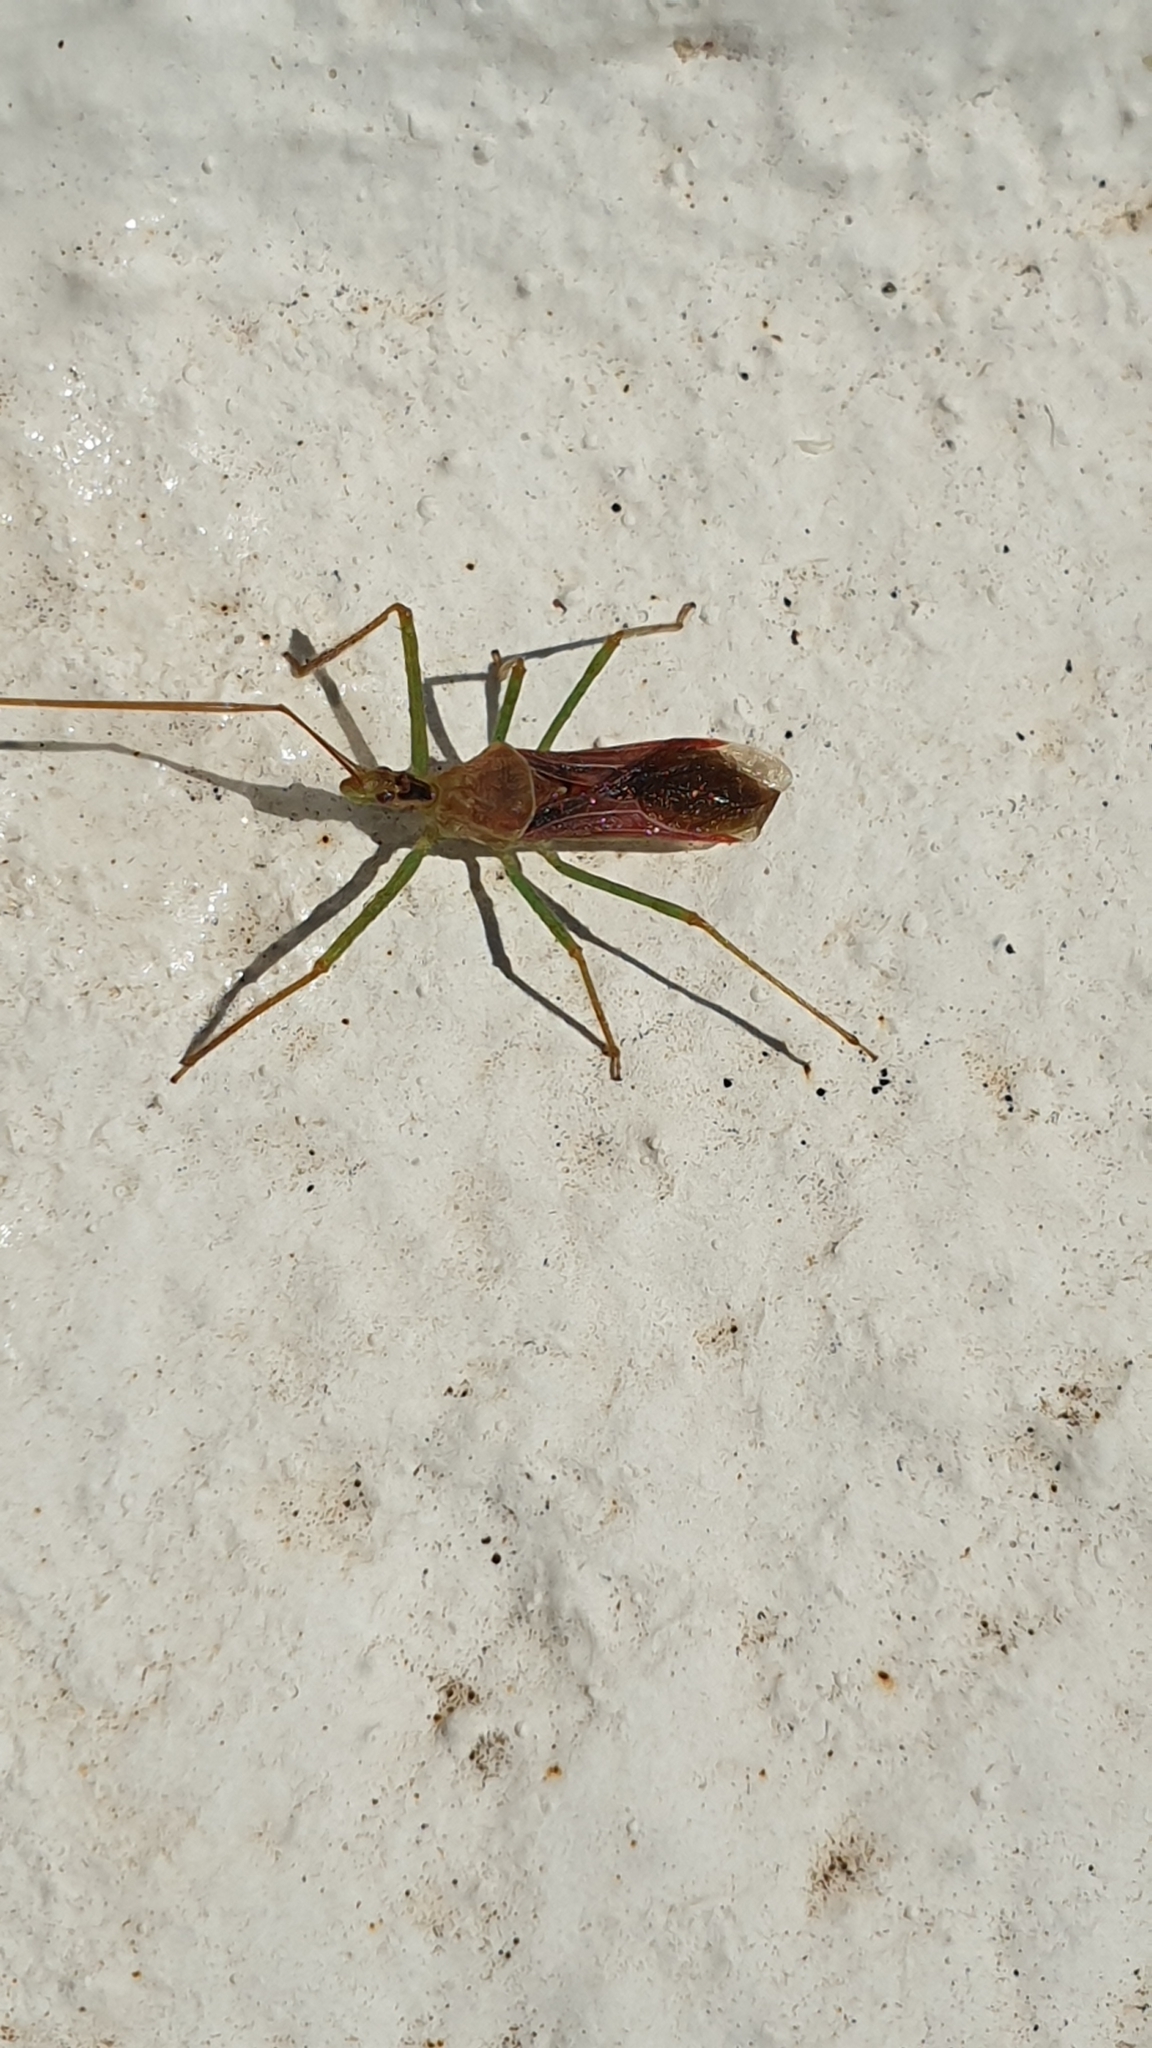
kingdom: Animalia
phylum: Arthropoda
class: Insecta
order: Hemiptera
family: Reduviidae
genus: Zelus
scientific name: Zelus renardii
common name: Assassin bug
